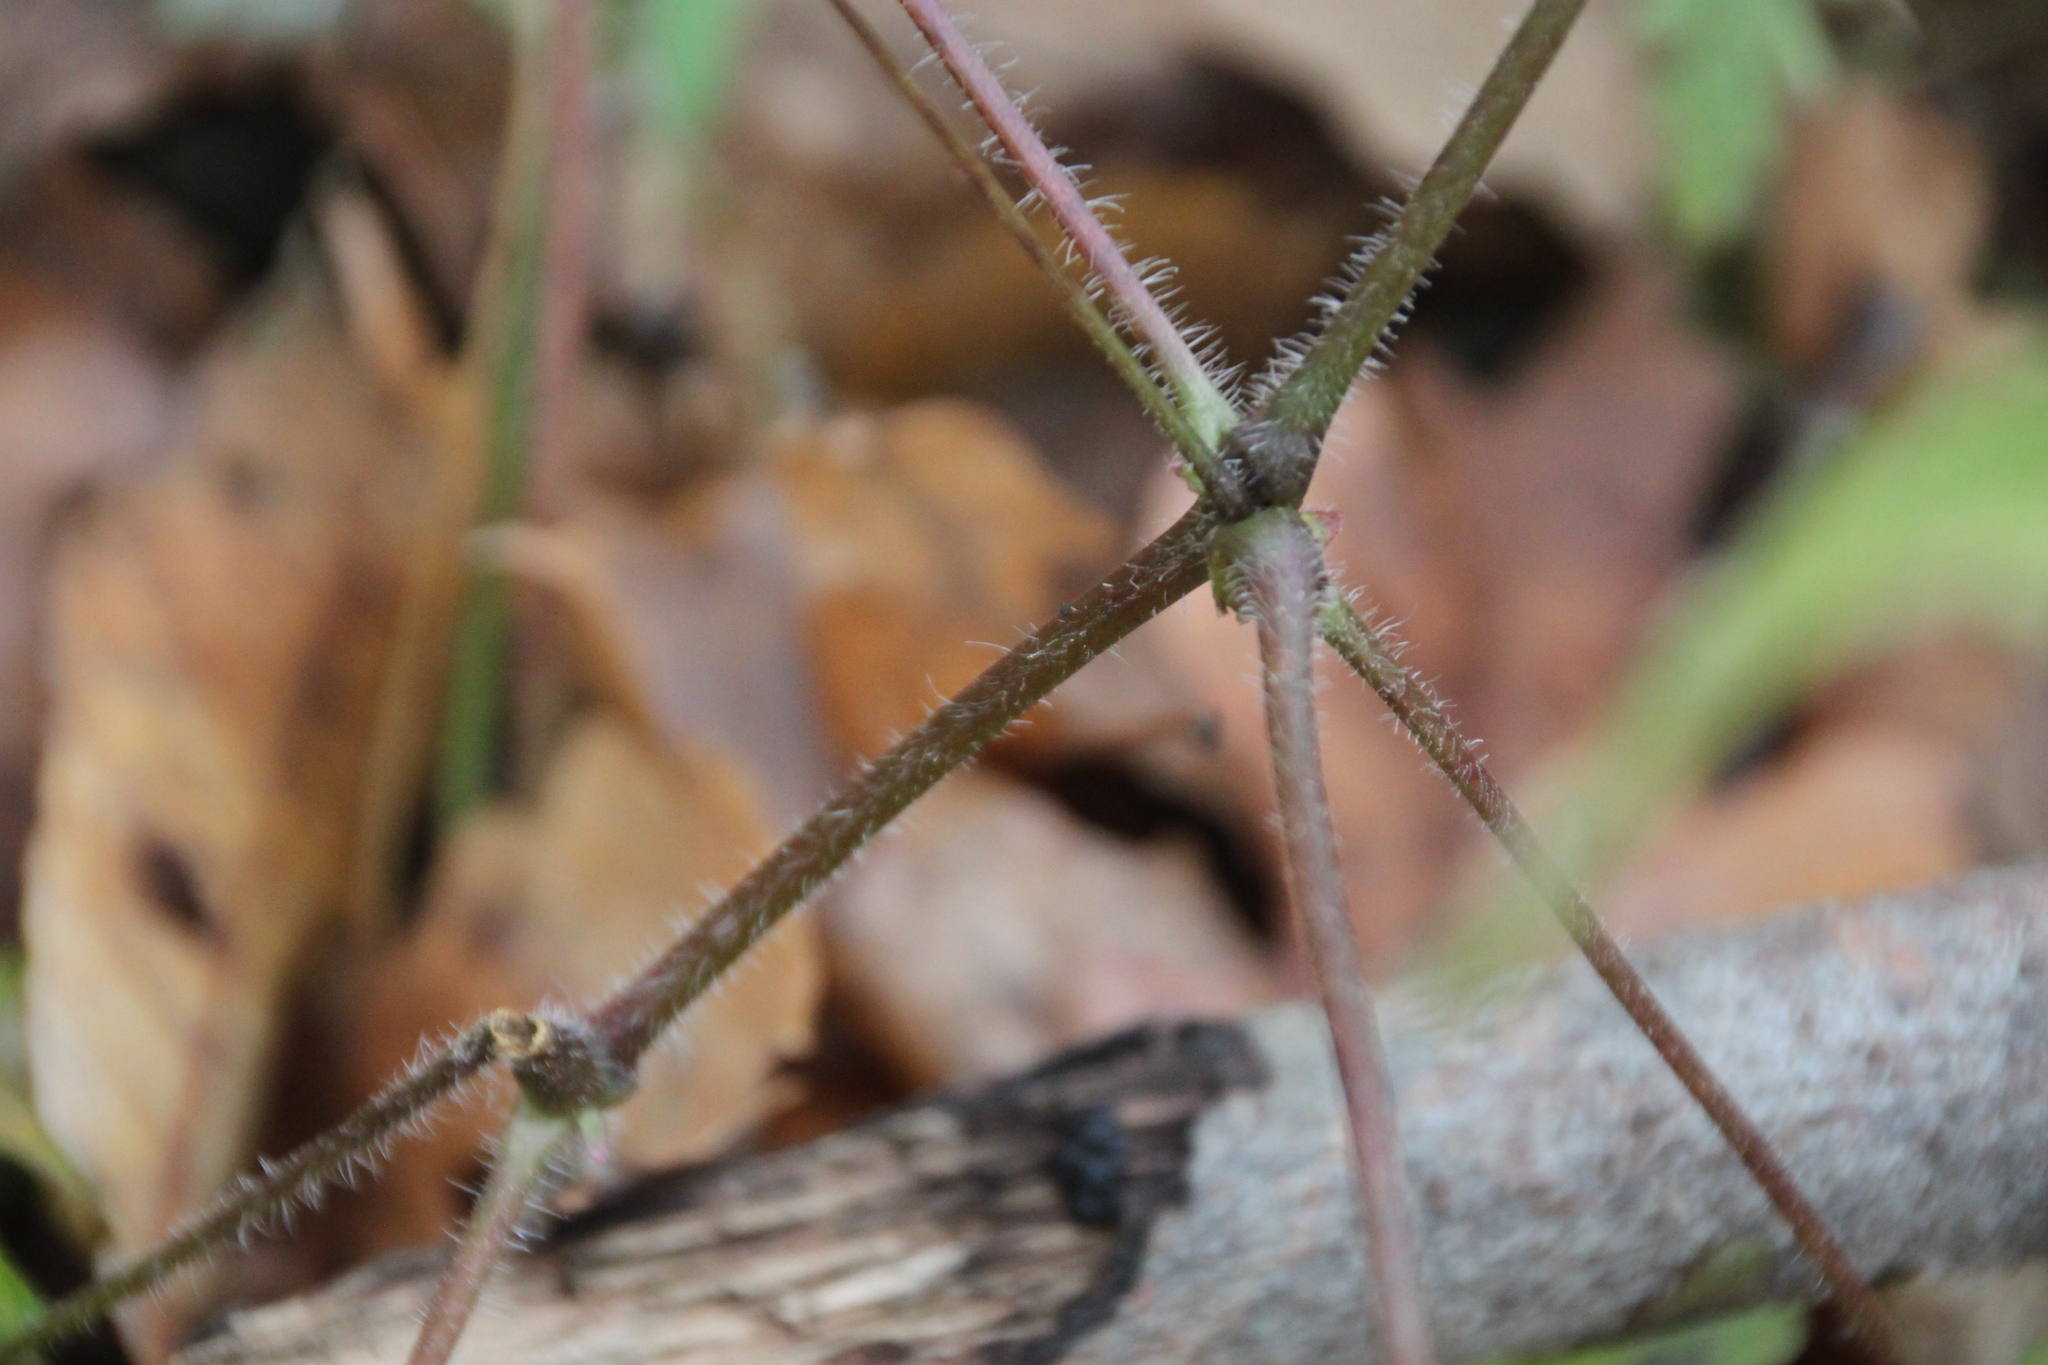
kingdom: Plantae
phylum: Tracheophyta
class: Magnoliopsida
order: Geraniales
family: Geraniaceae
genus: Geranium
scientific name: Geranium robertianum
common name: Herb-robert
